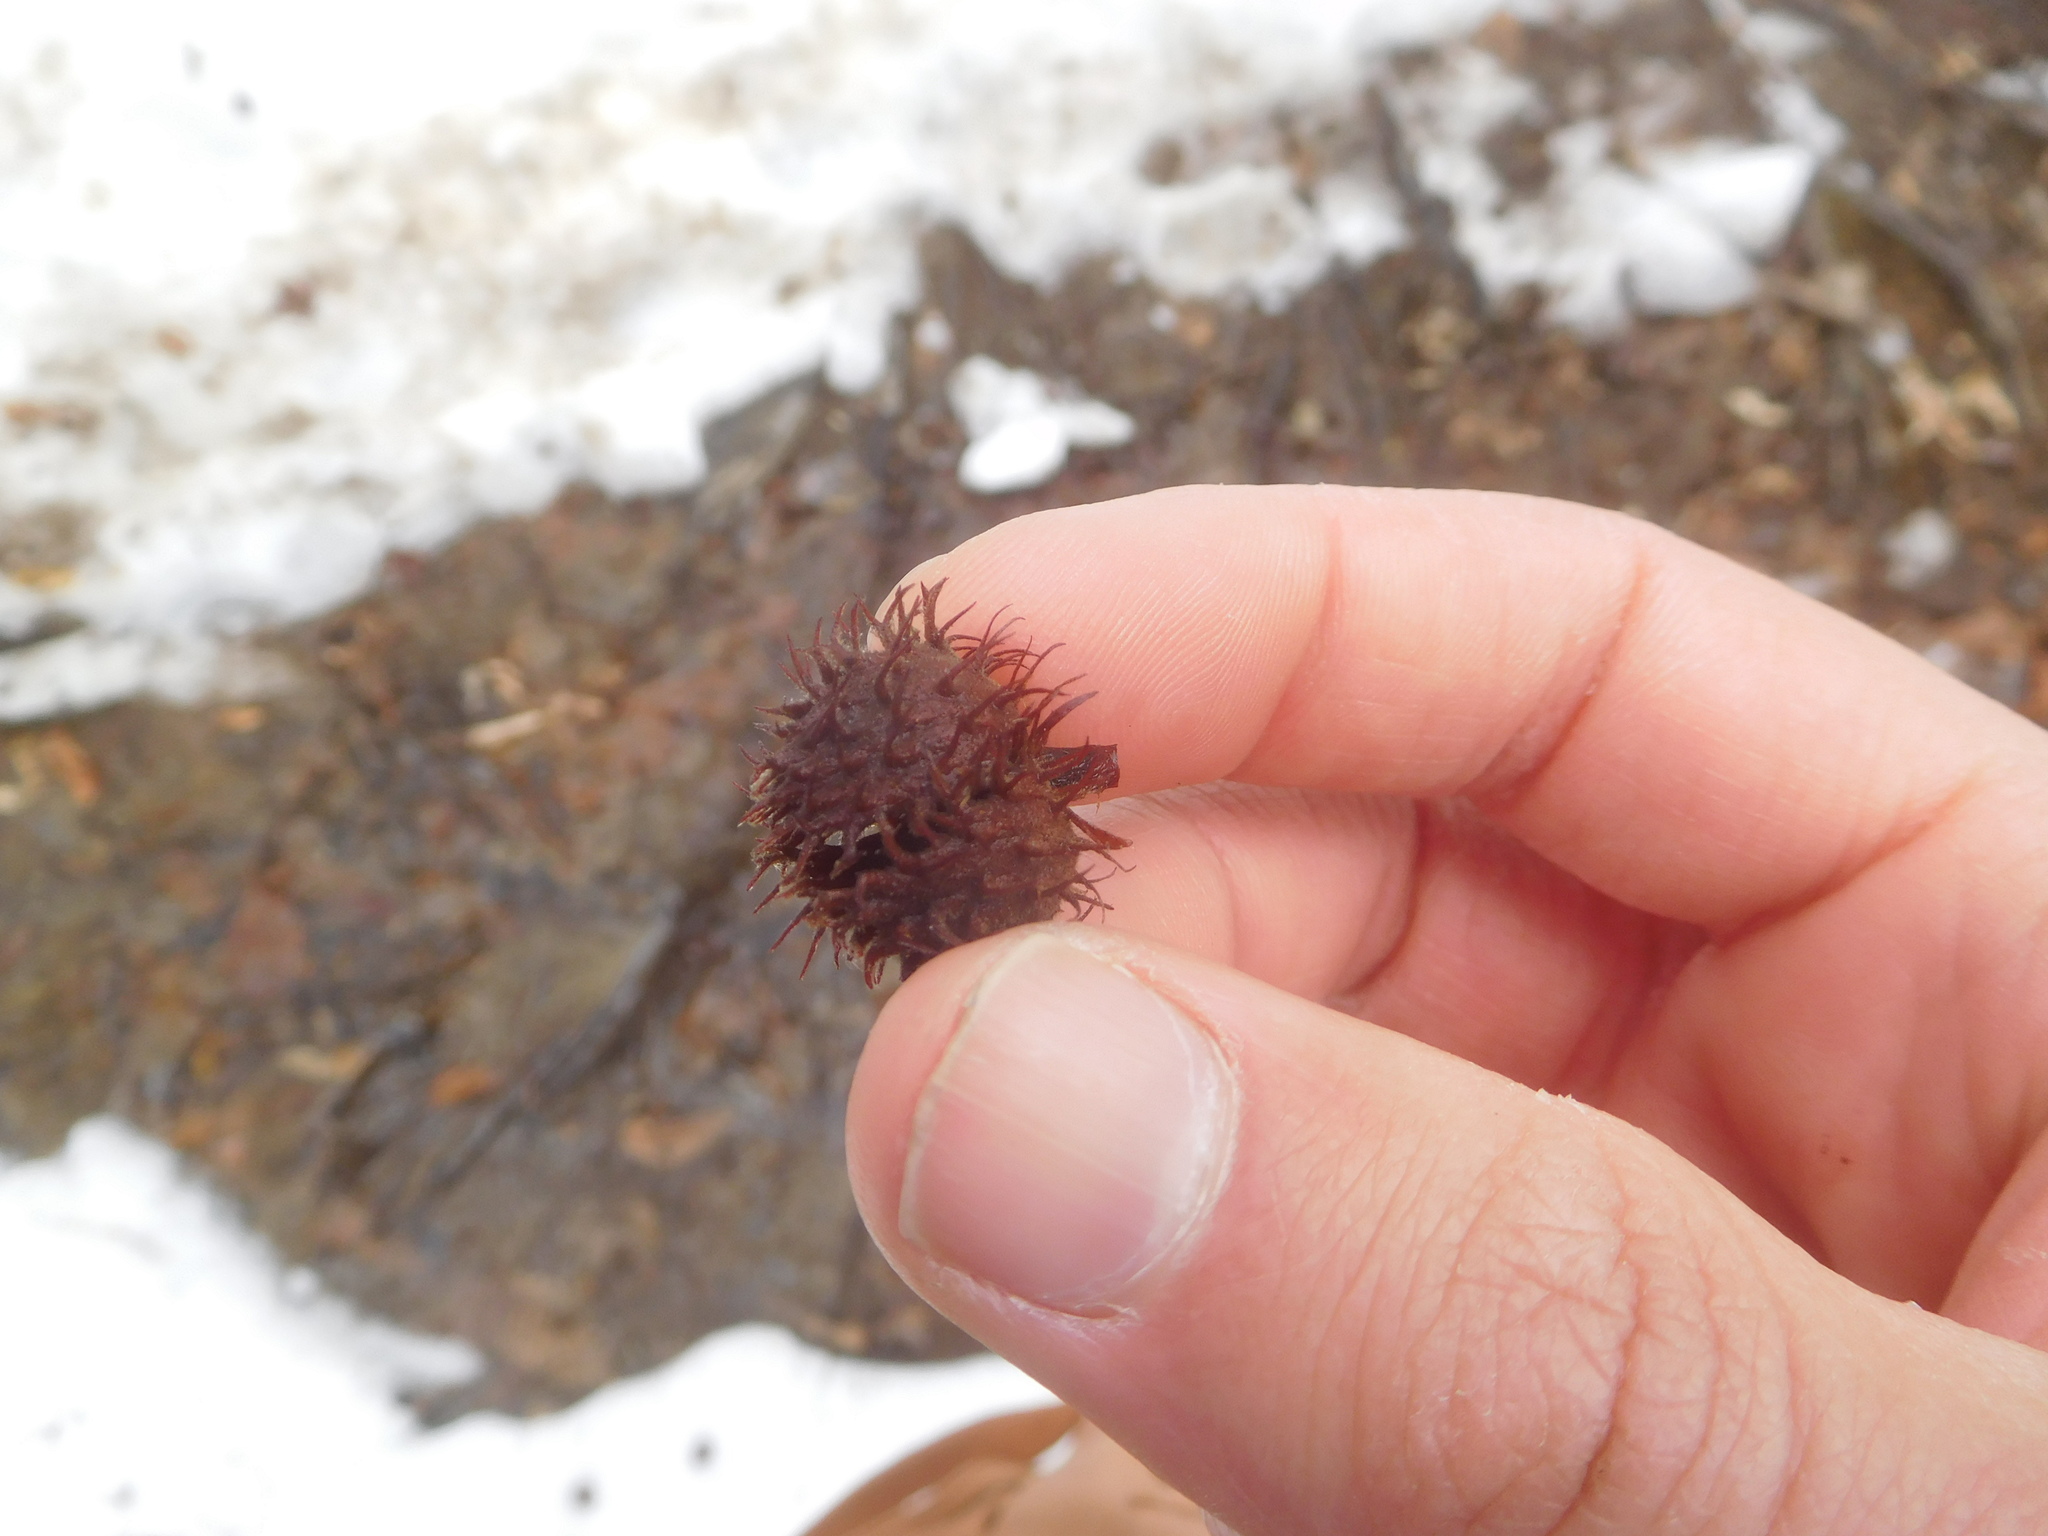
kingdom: Plantae
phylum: Tracheophyta
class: Magnoliopsida
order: Fagales
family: Fagaceae
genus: Fagus
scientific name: Fagus grandifolia
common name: American beech
